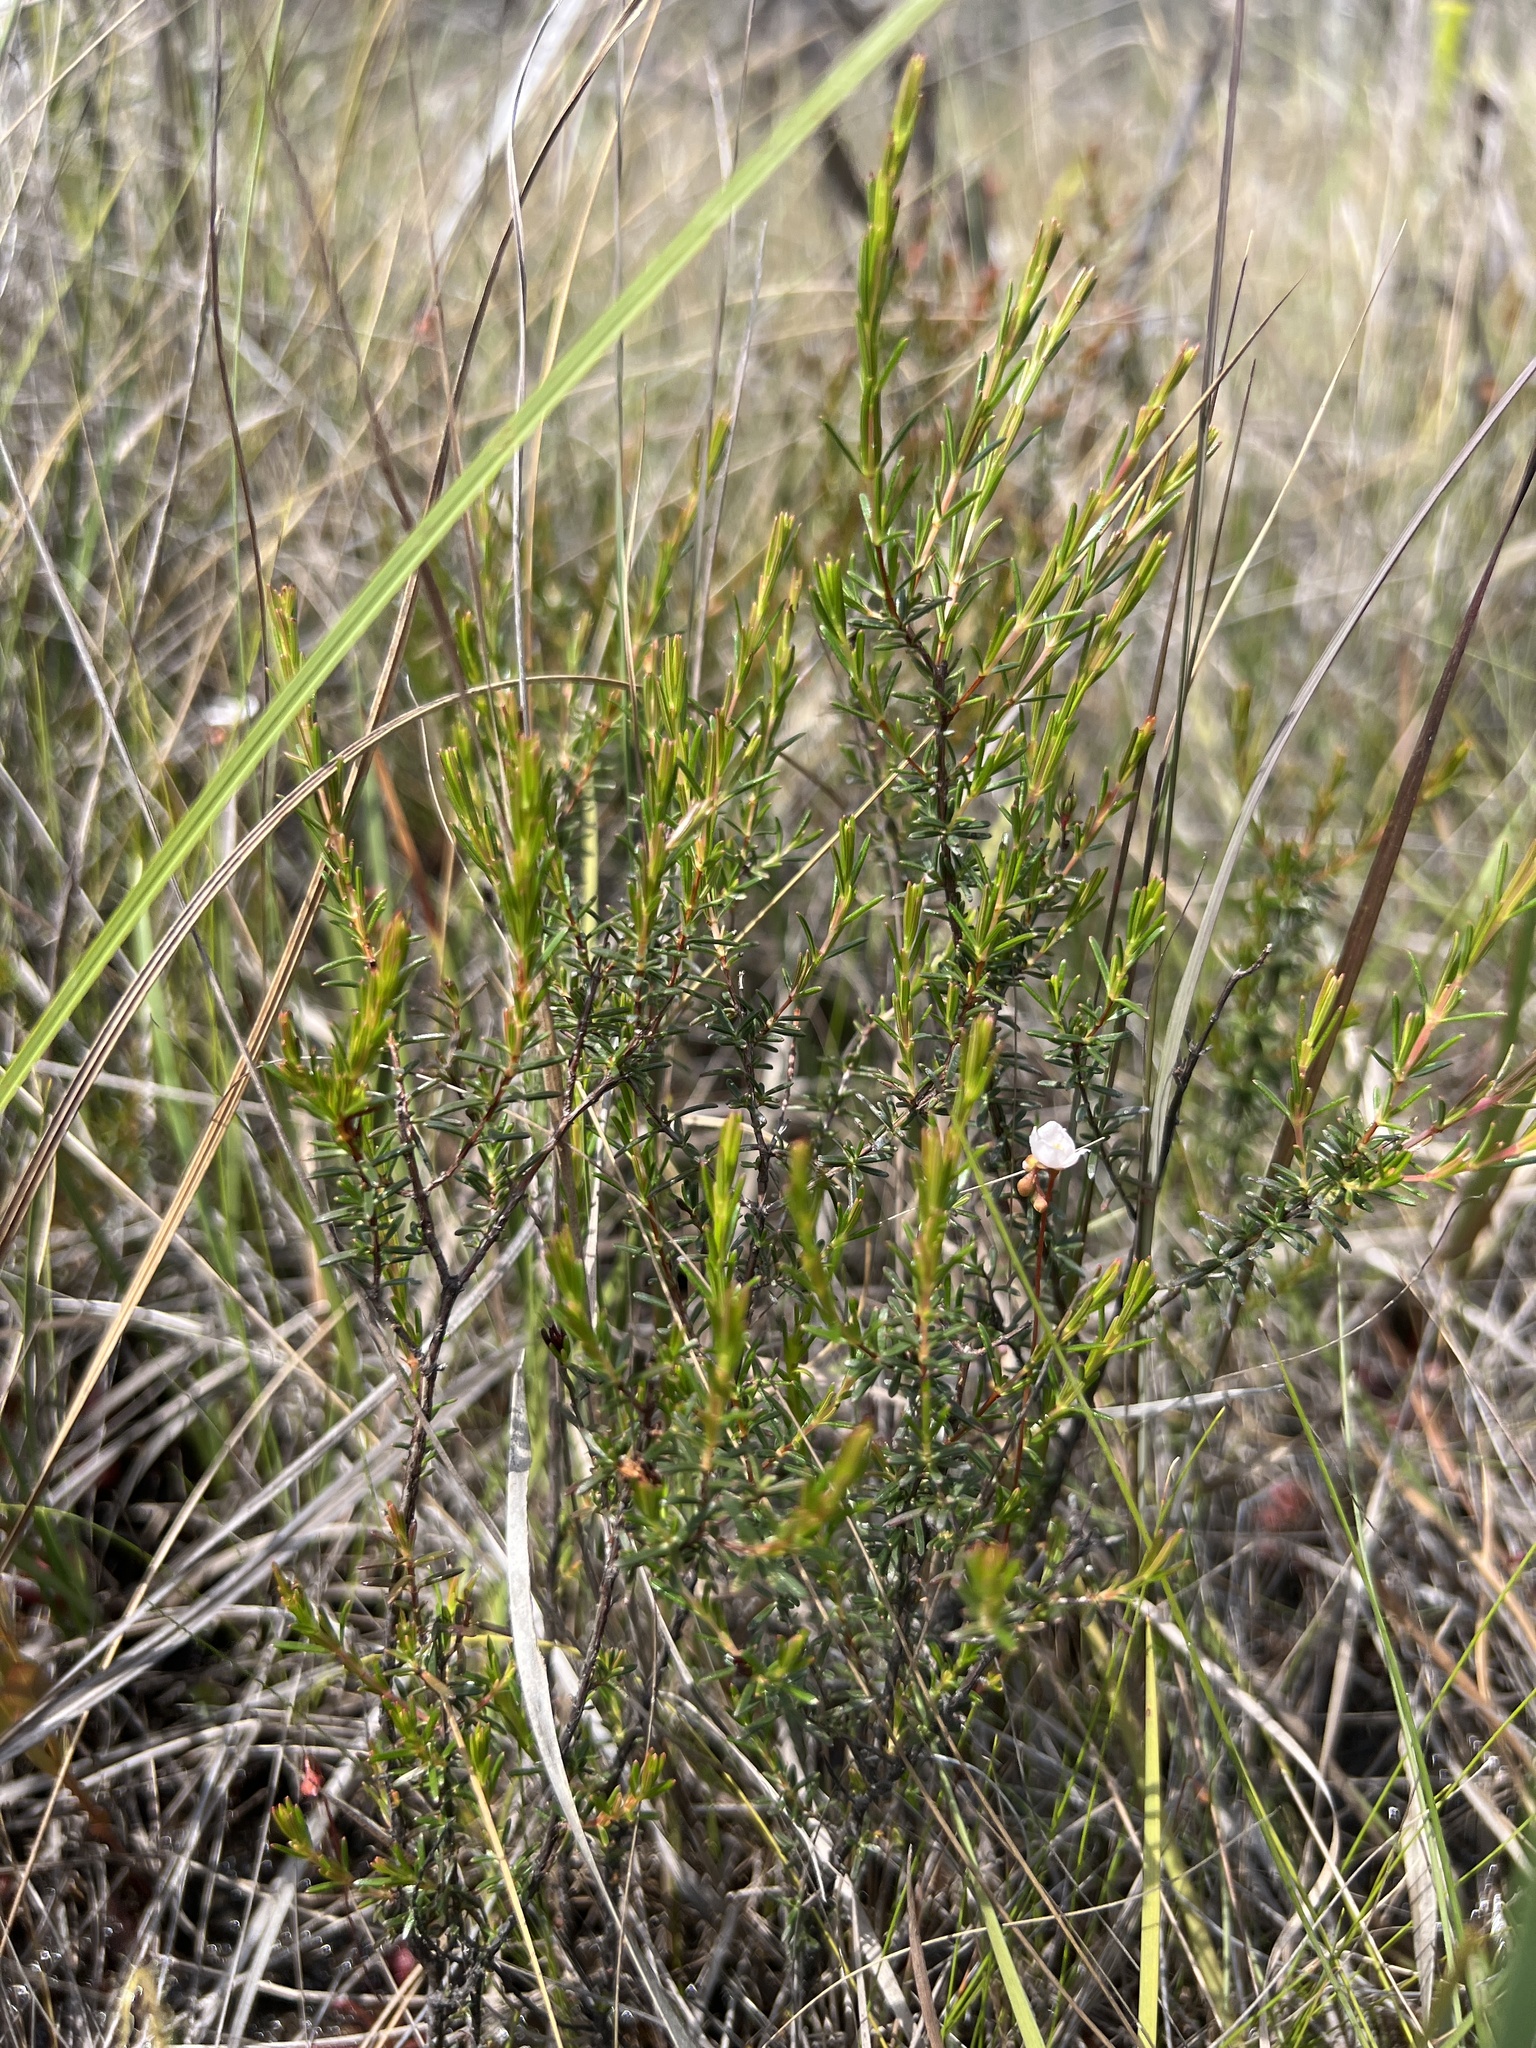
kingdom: Plantae
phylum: Tracheophyta
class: Magnoliopsida
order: Malpighiales
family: Hypericaceae
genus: Hypericum
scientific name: Hypericum brachyphyllum
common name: Coastal plain st. john's-wort
